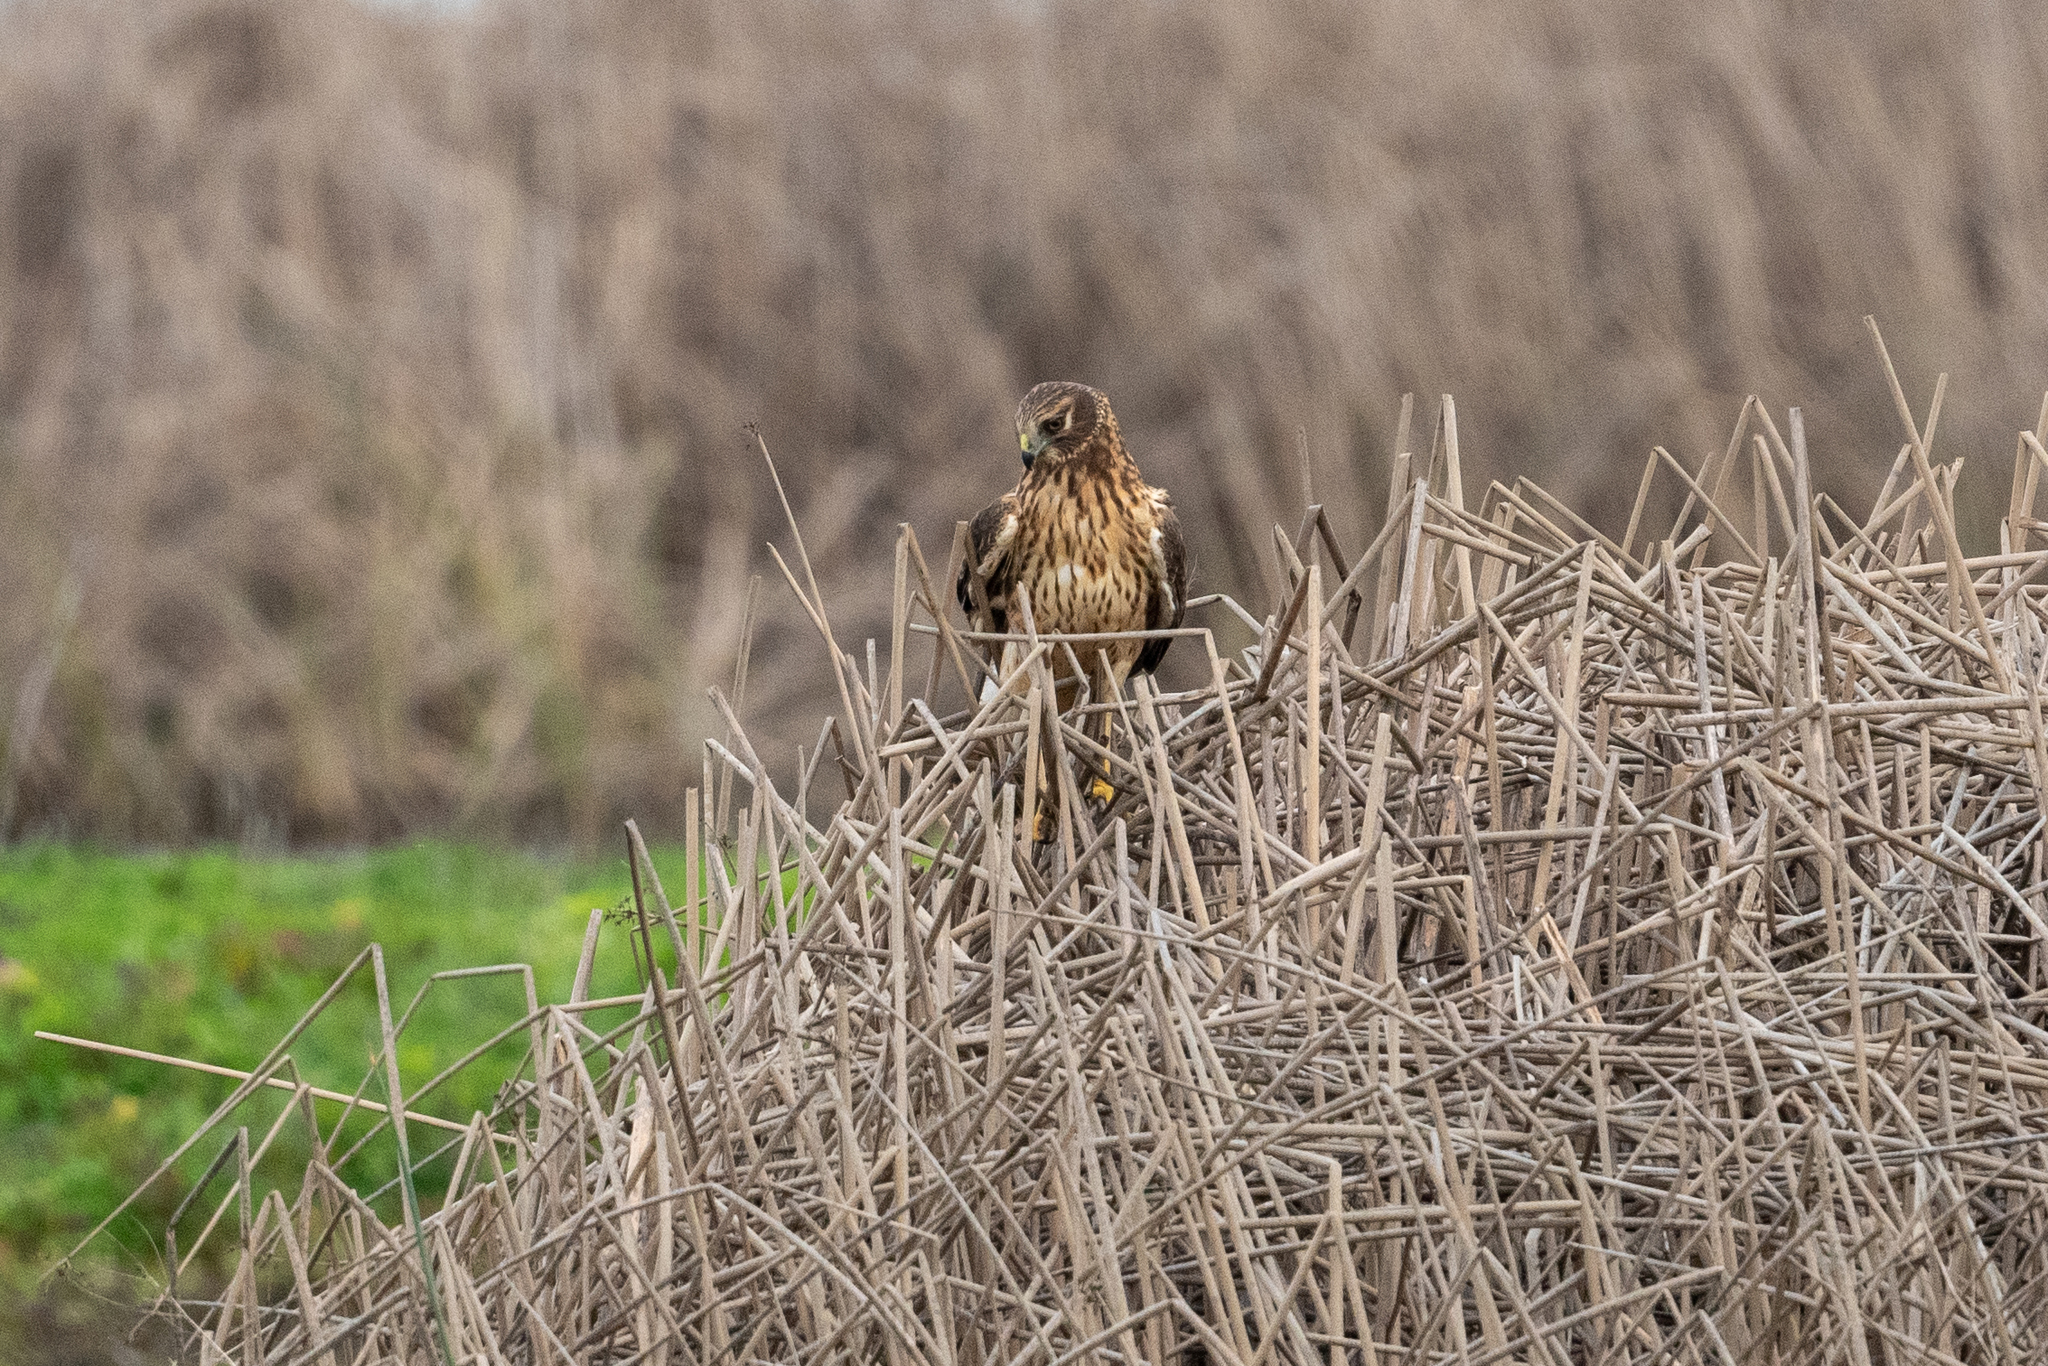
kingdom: Animalia
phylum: Chordata
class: Aves
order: Accipitriformes
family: Accipitridae
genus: Circus
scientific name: Circus cyaneus
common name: Hen harrier
